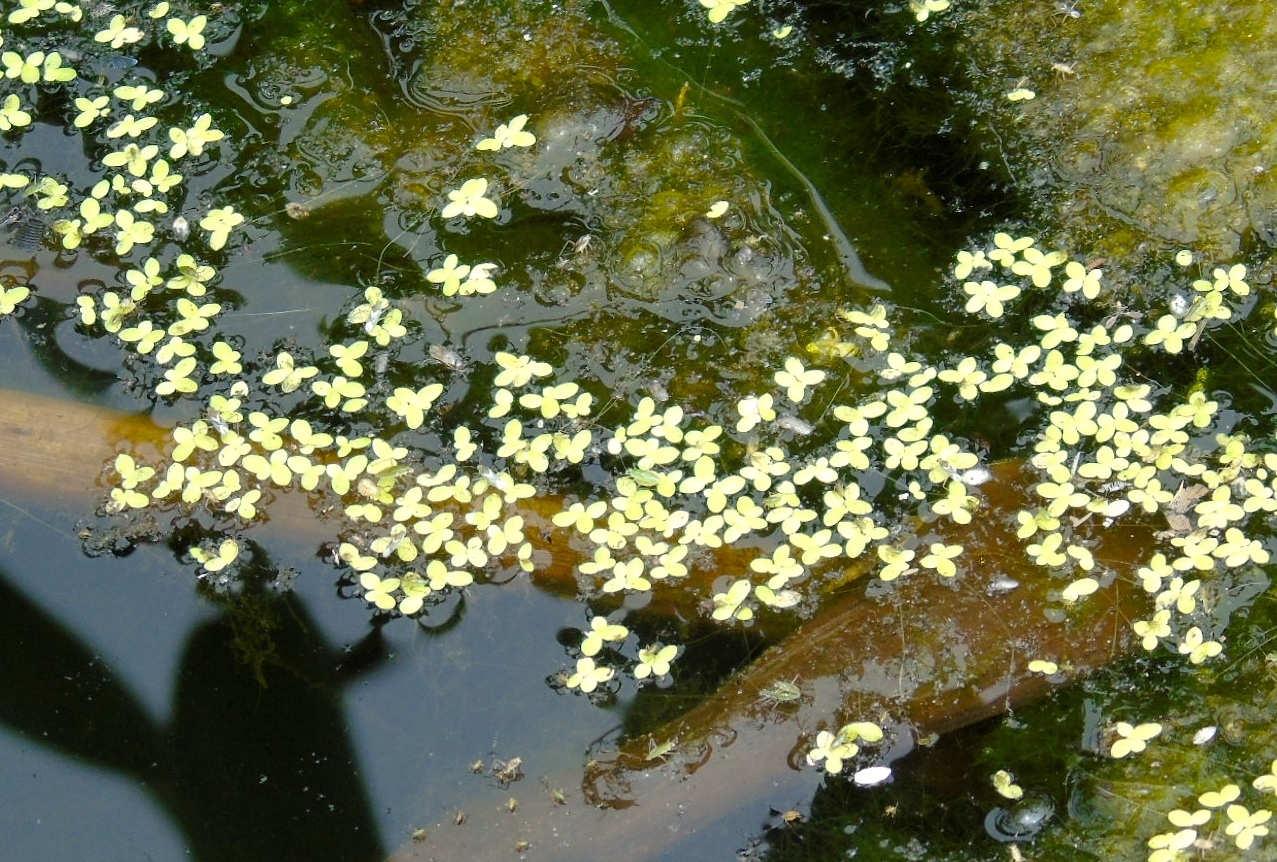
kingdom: Plantae
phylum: Tracheophyta
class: Liliopsida
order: Alismatales
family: Araceae
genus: Lemna
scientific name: Lemna
